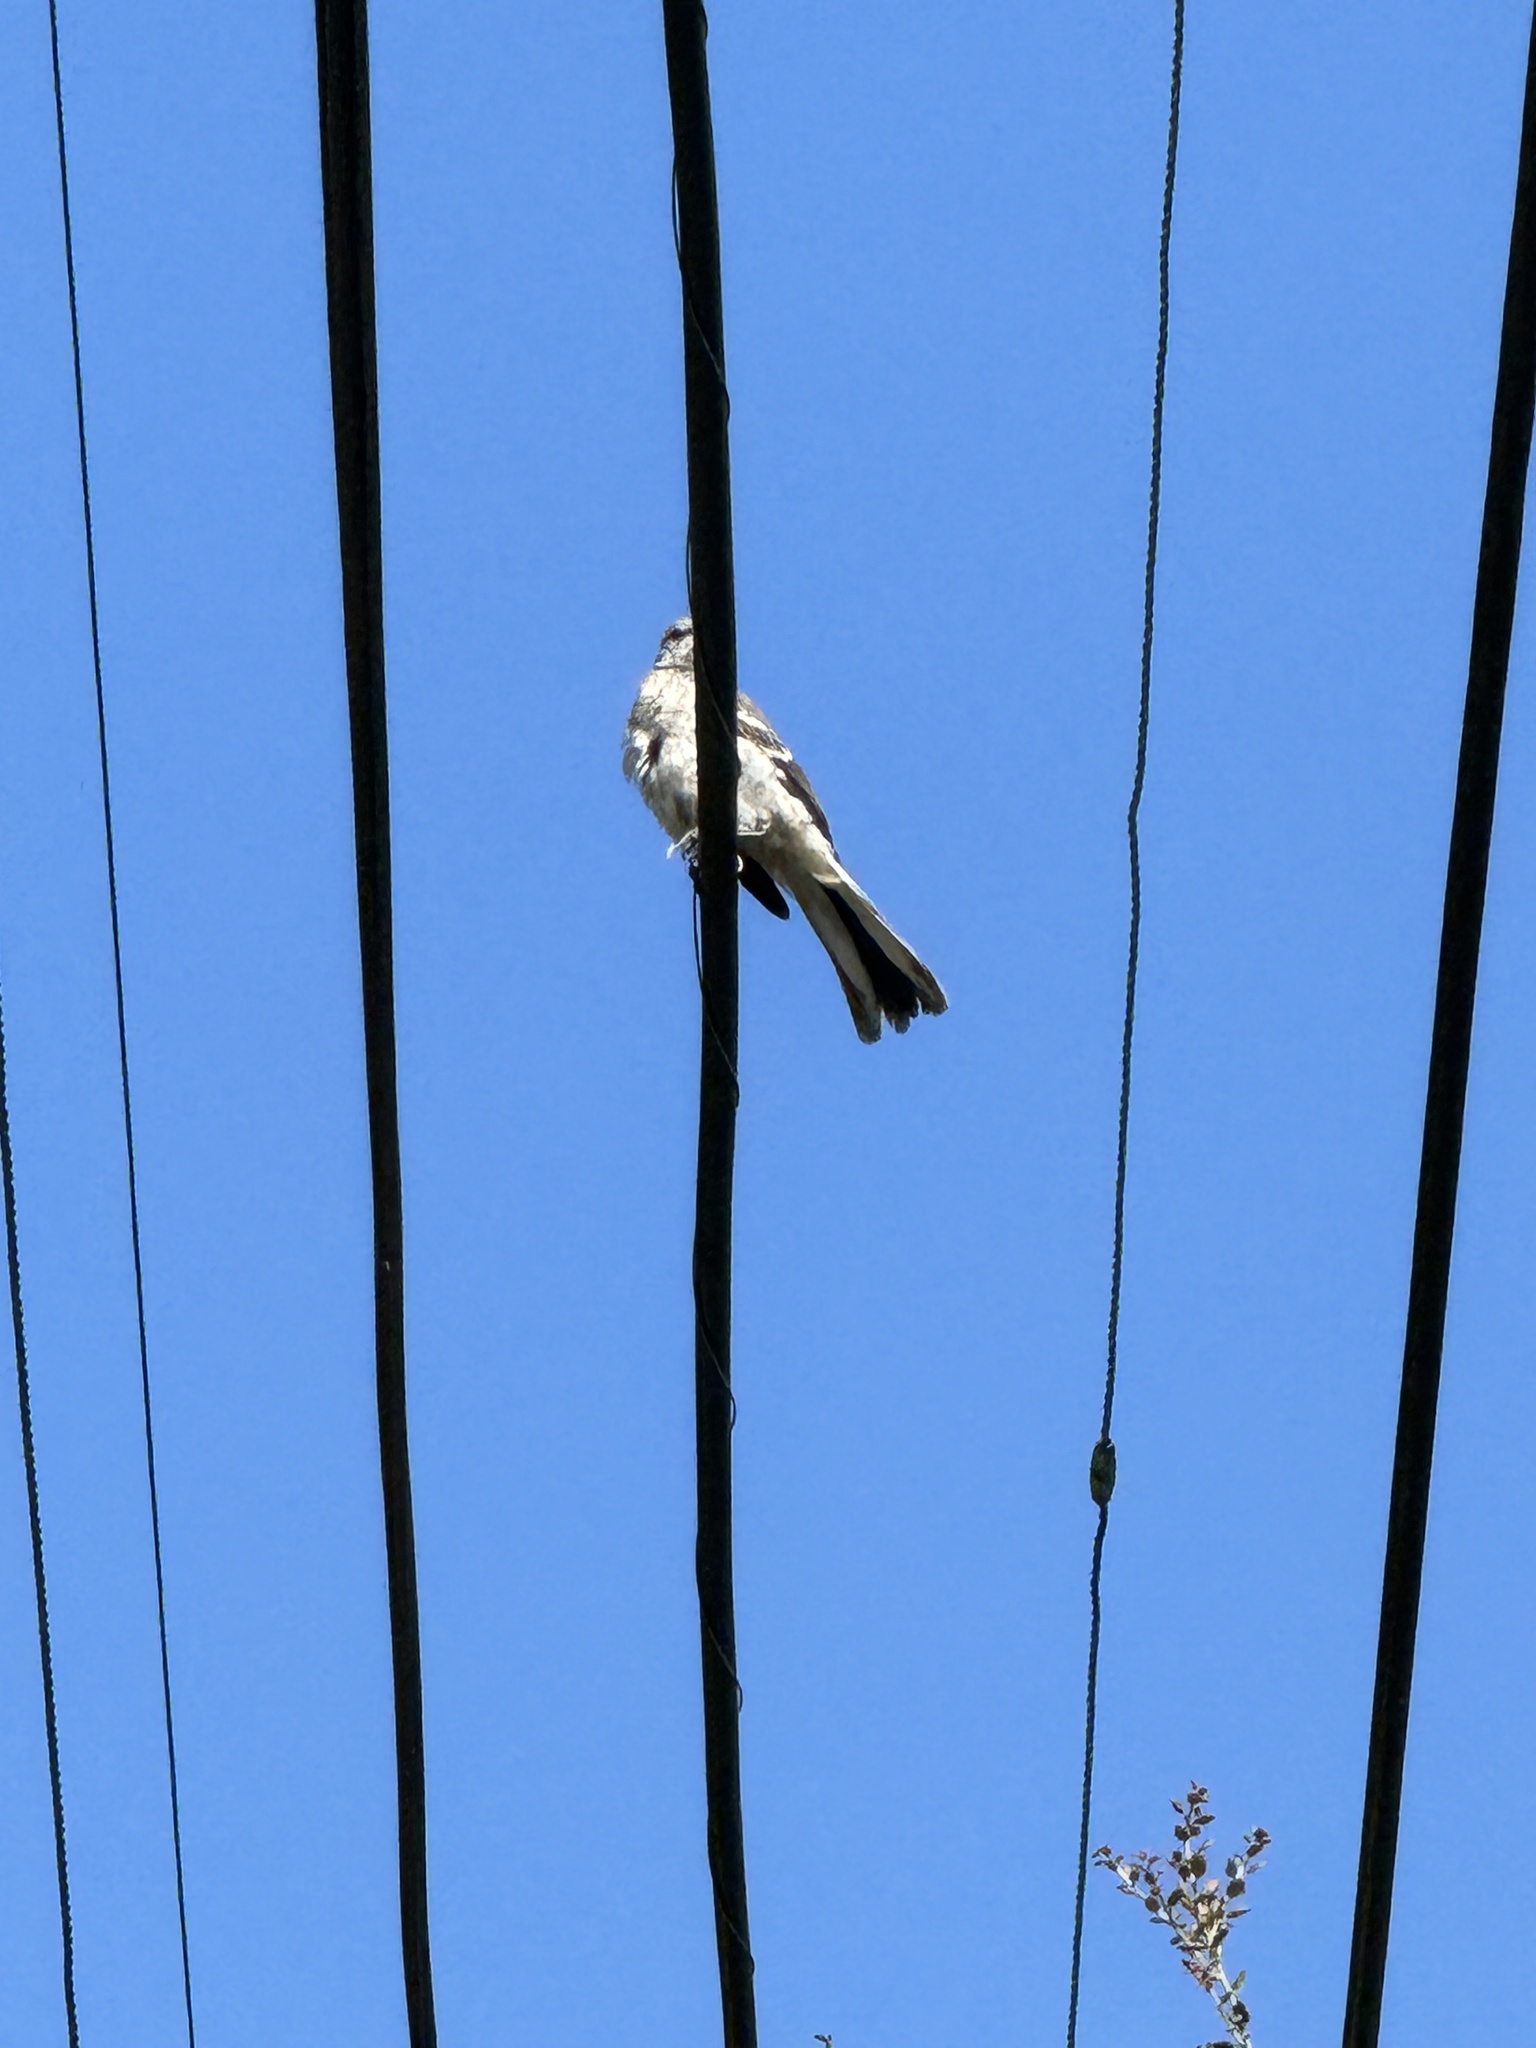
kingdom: Animalia
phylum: Chordata
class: Aves
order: Passeriformes
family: Mimidae
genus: Mimus
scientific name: Mimus polyglottos
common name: Northern mockingbird
